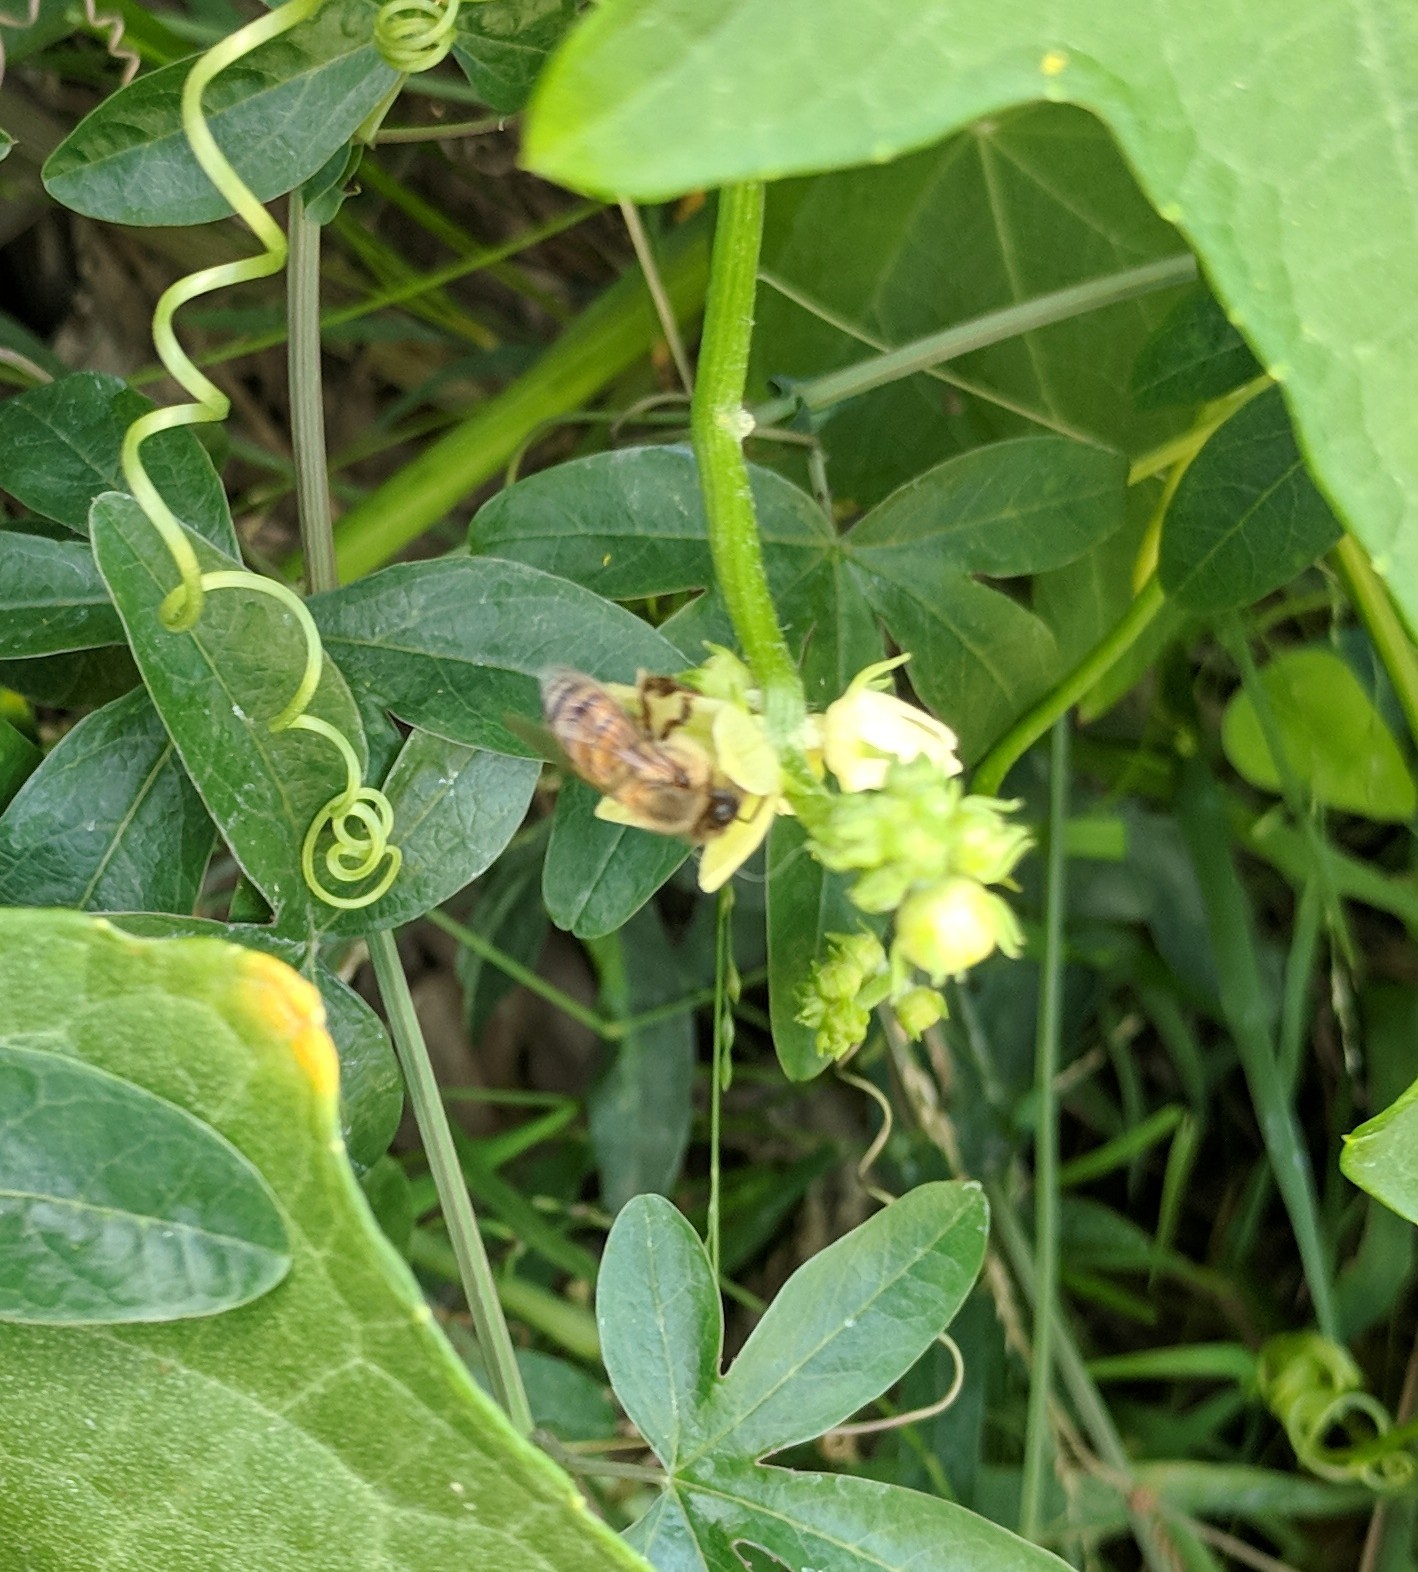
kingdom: Animalia
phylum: Arthropoda
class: Insecta
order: Hymenoptera
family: Apidae
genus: Apis
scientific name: Apis mellifera
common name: Honey bee
